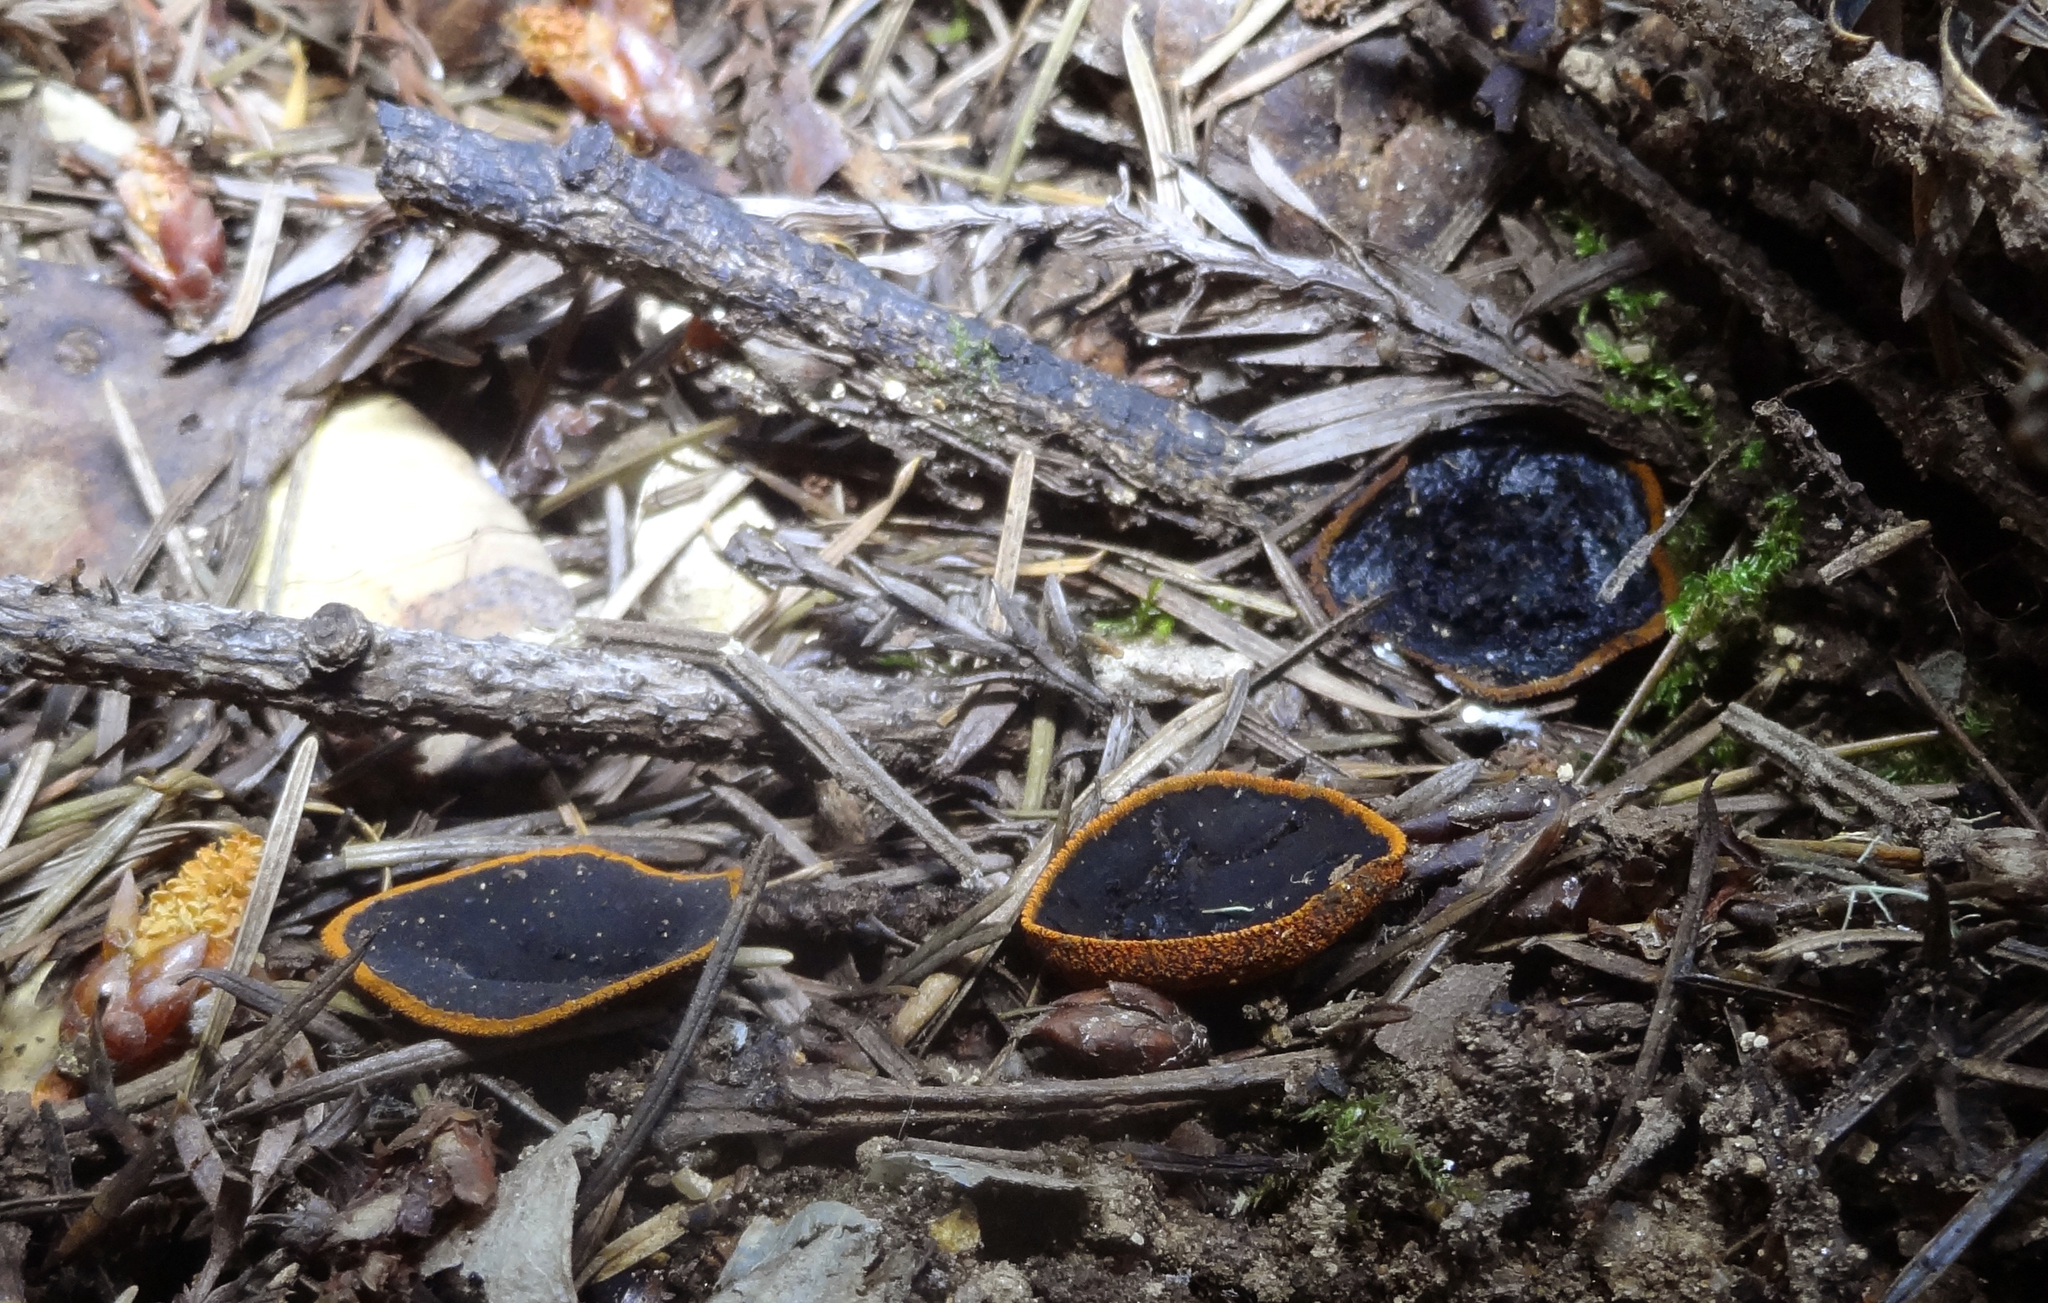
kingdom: Fungi
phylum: Ascomycota
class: Pezizomycetes
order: Pezizales
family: Sarcosomataceae
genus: Plectania
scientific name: Plectania melastoma
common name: Corona cup
